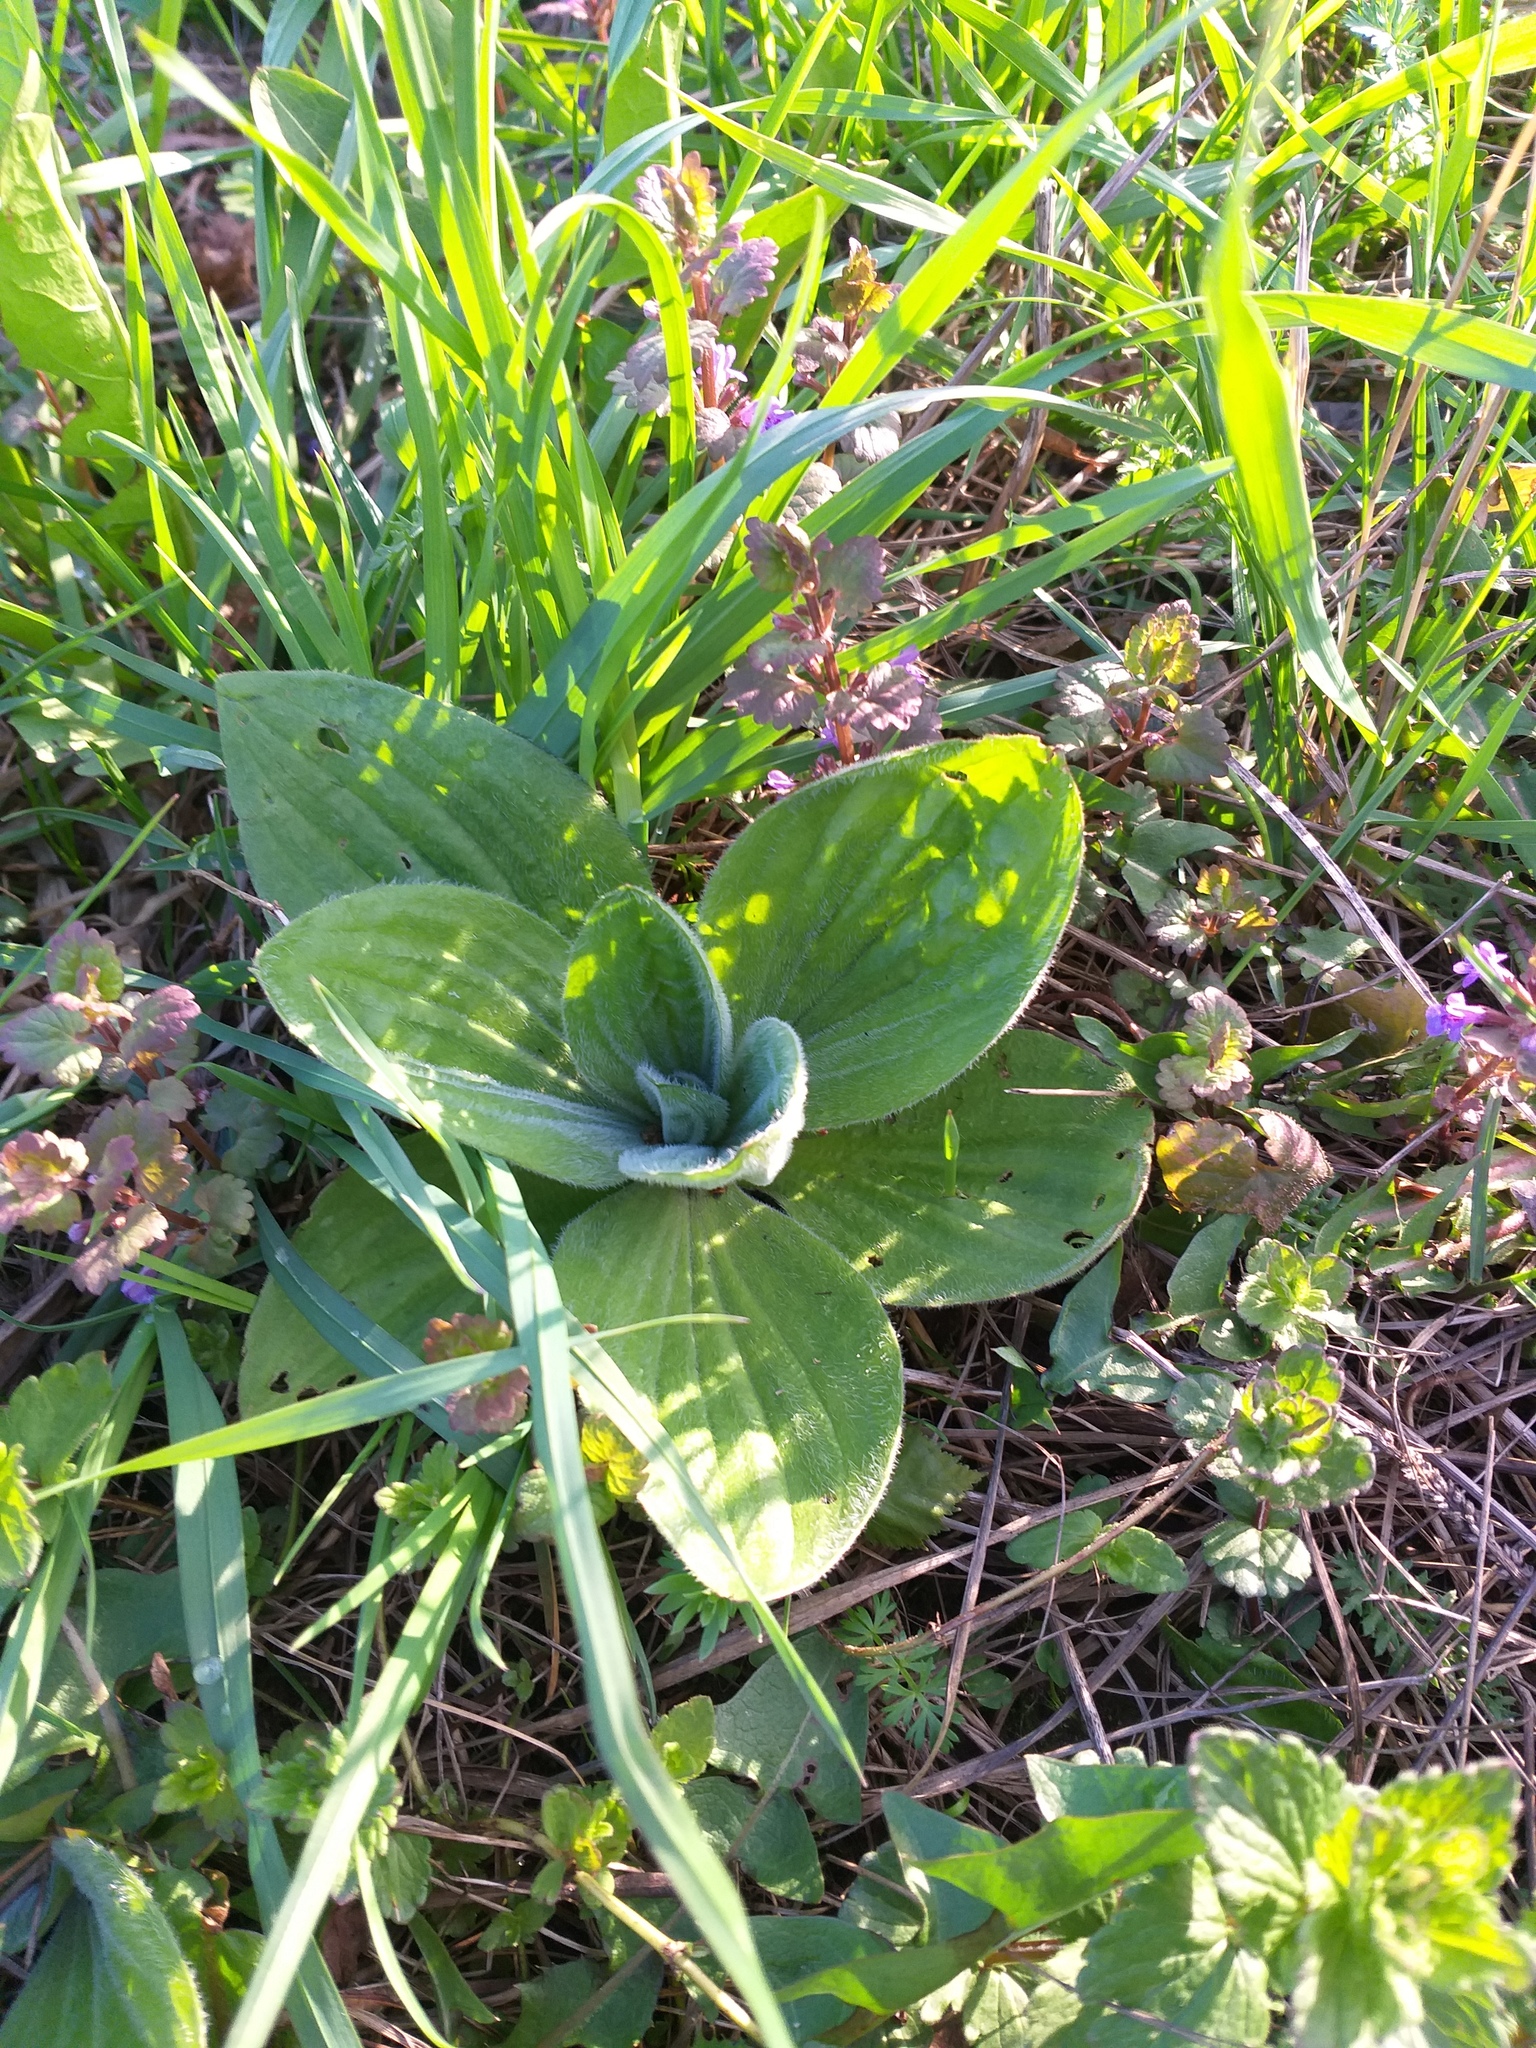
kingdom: Plantae
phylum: Tracheophyta
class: Magnoliopsida
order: Lamiales
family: Plantaginaceae
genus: Plantago
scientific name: Plantago urvillei
